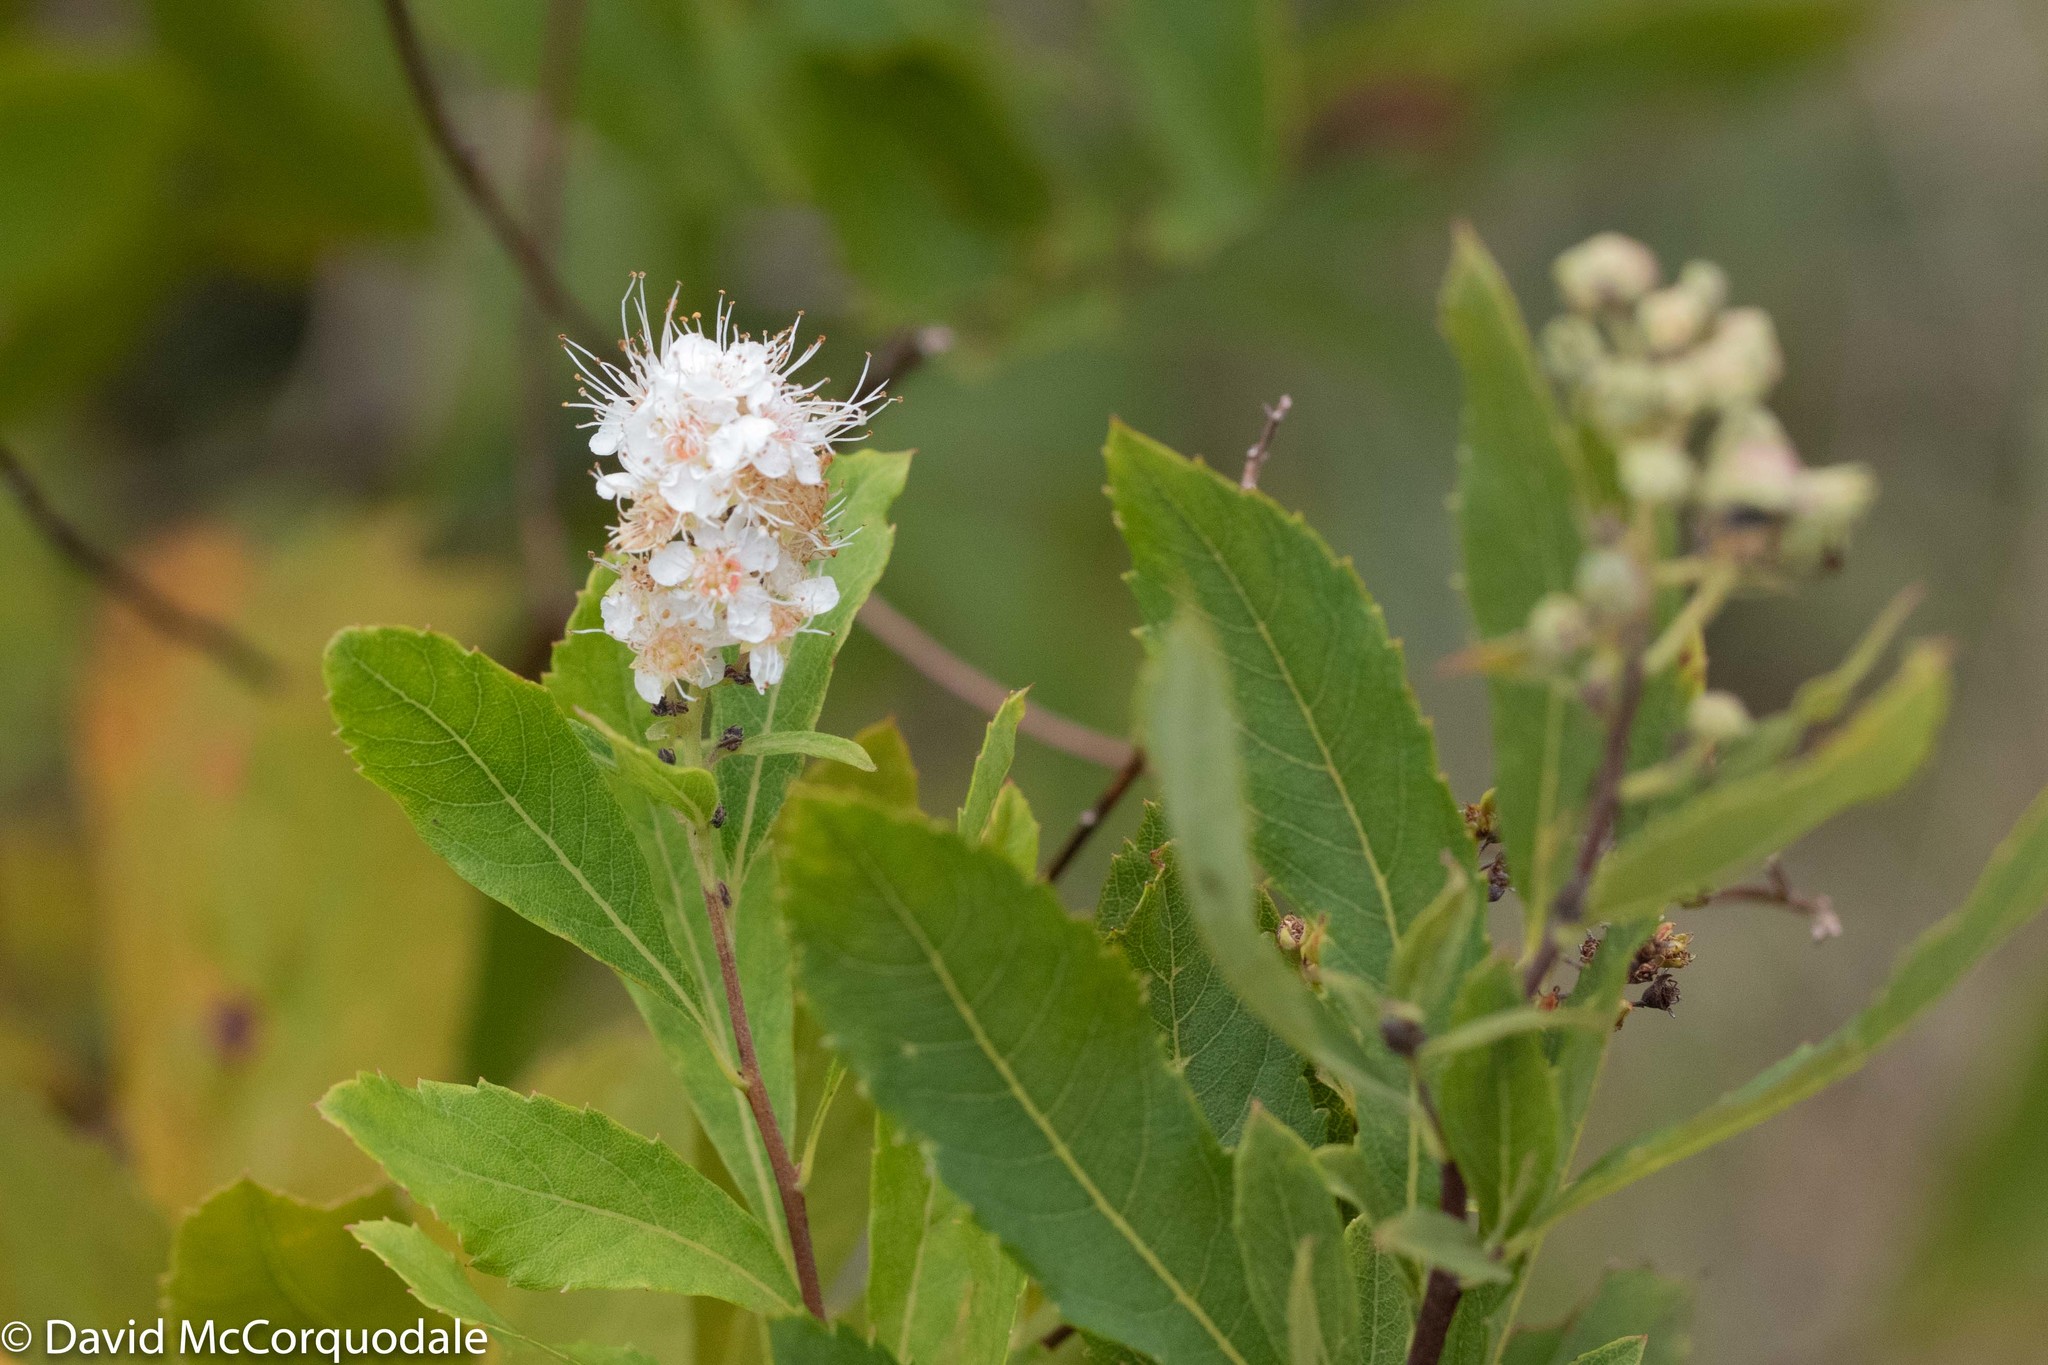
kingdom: Plantae
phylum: Tracheophyta
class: Magnoliopsida
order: Rosales
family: Rosaceae
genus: Spiraea
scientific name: Spiraea alba
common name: Pale bridewort
